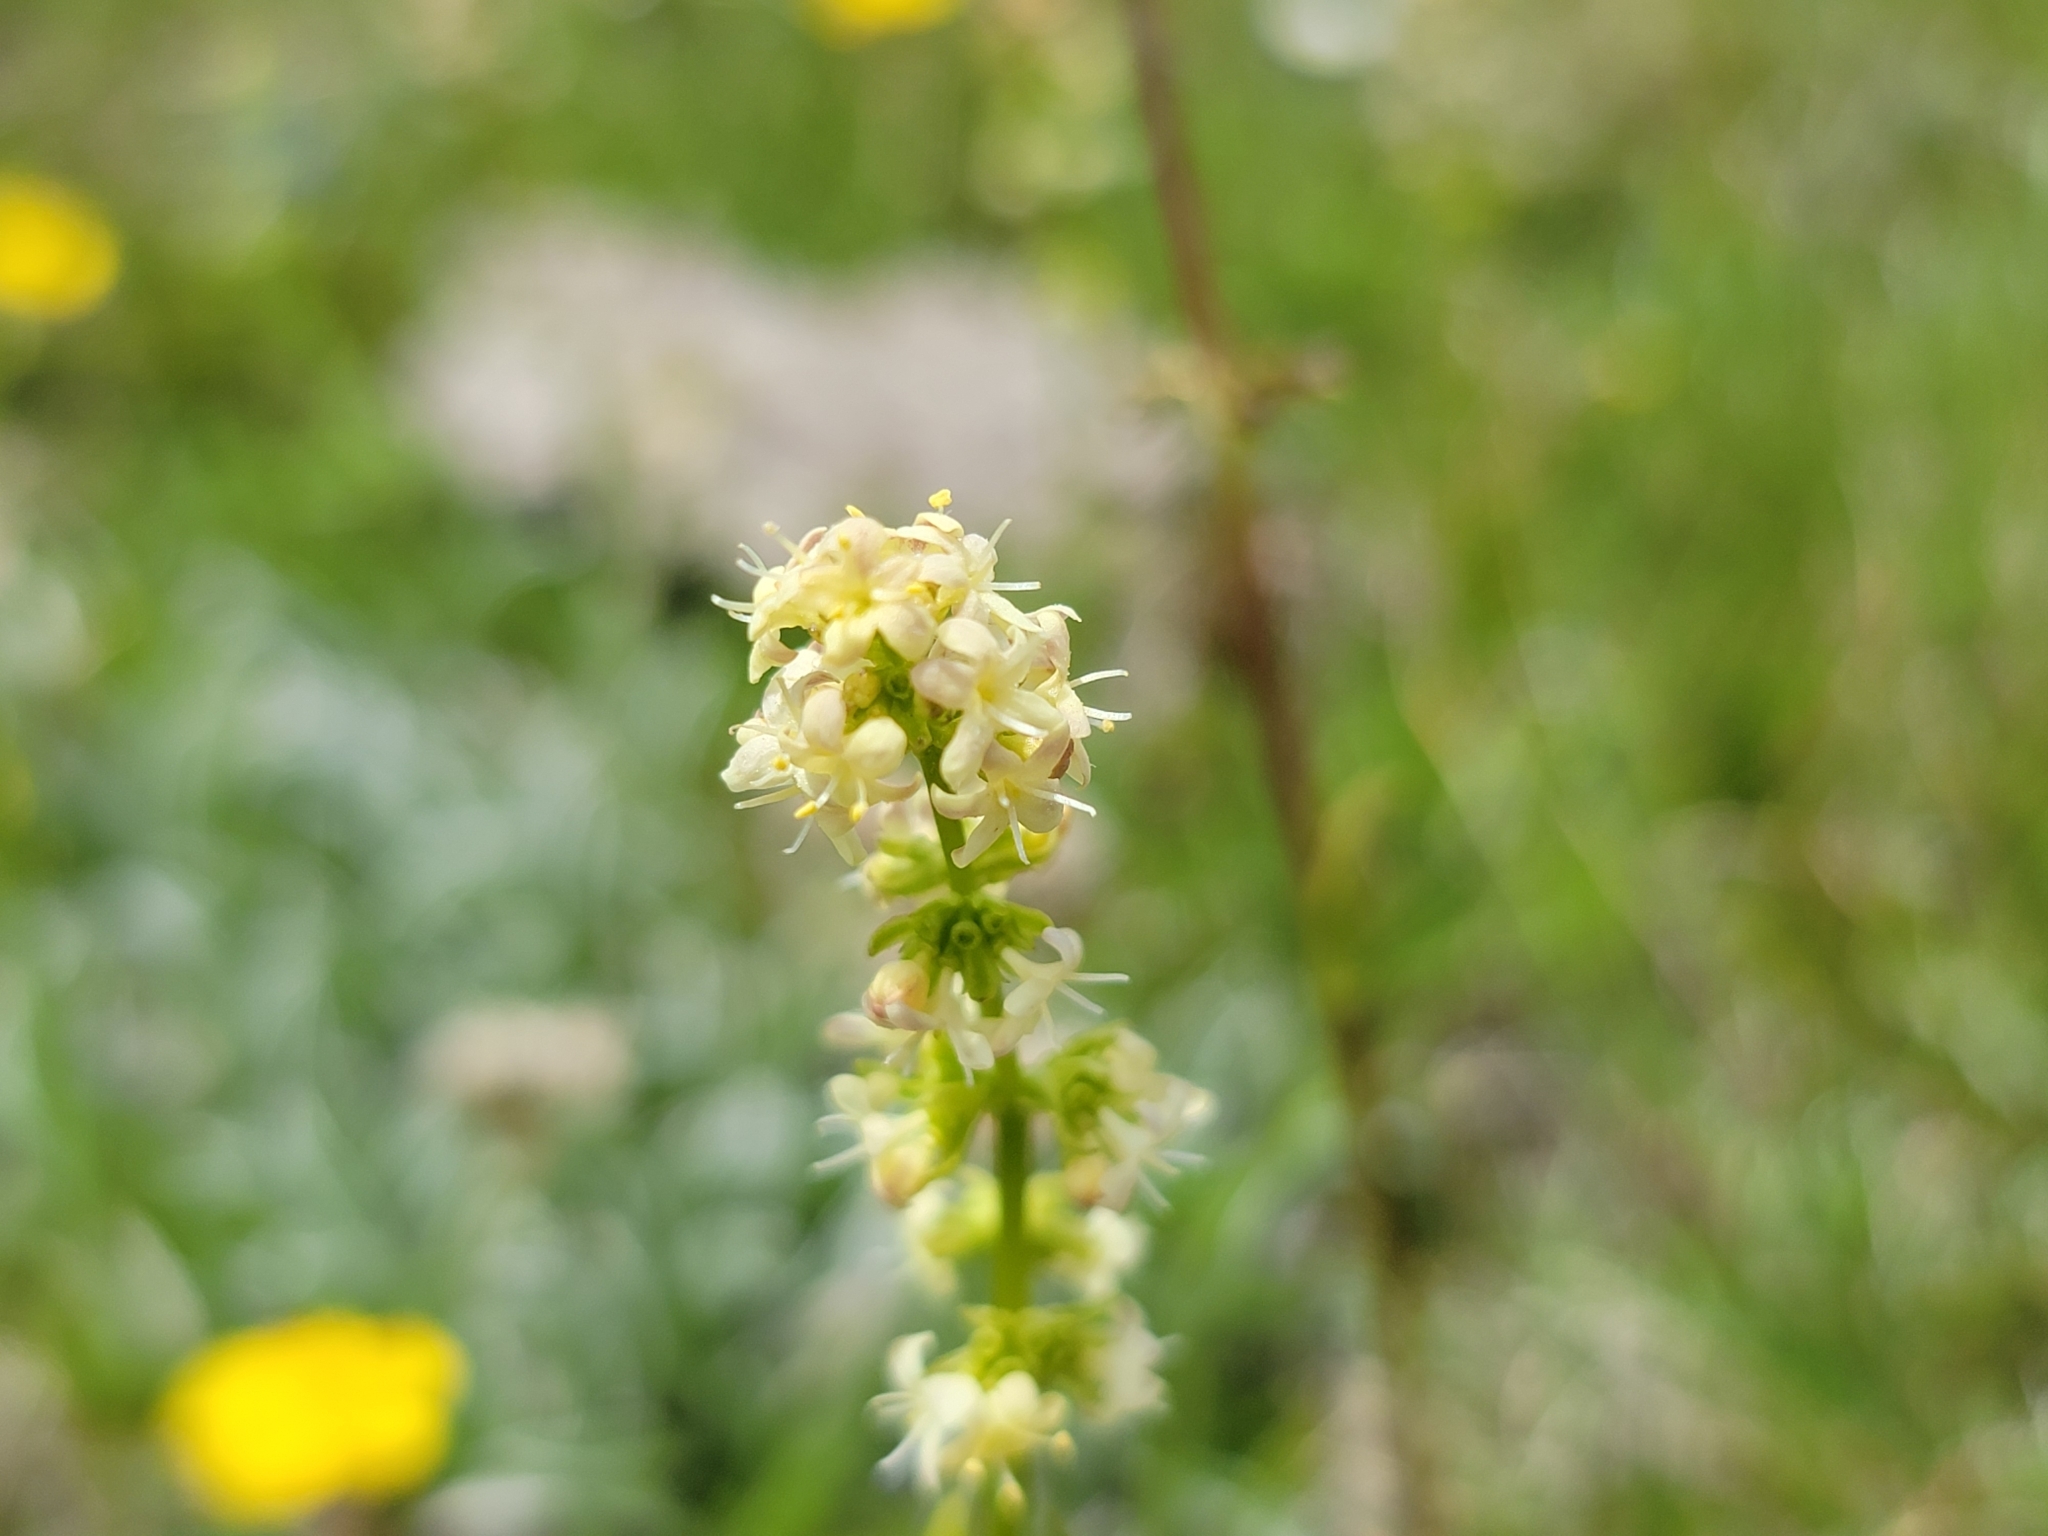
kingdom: Plantae
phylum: Tracheophyta
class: Magnoliopsida
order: Dipsacales
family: Caprifoliaceae
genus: Valeriana
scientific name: Valeriana celtica
